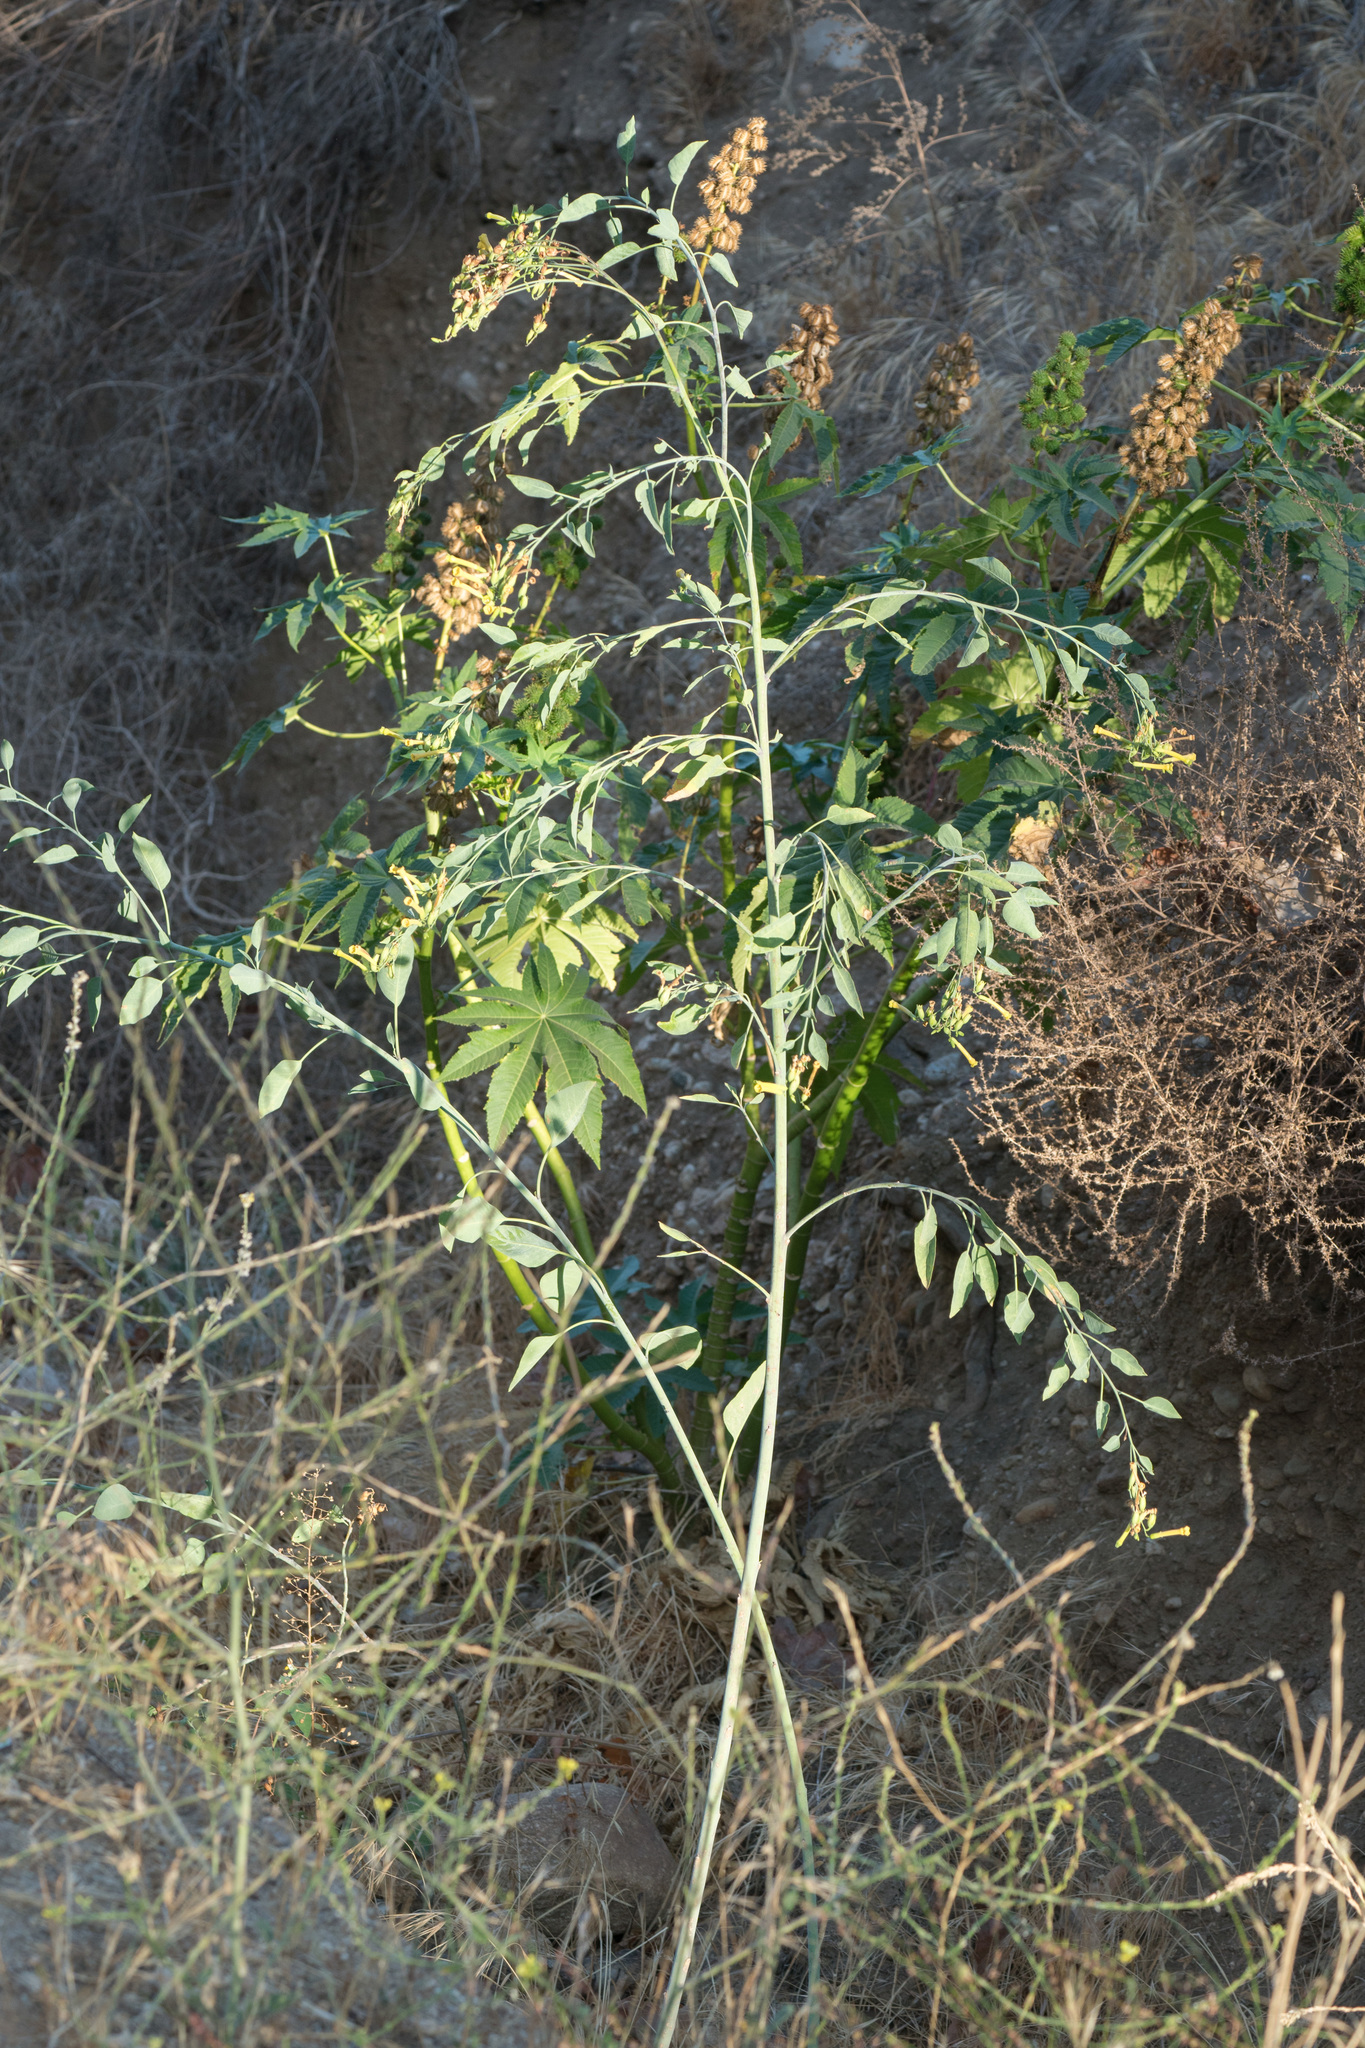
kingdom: Plantae
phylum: Tracheophyta
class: Magnoliopsida
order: Solanales
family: Solanaceae
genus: Nicotiana
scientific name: Nicotiana glauca
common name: Tree tobacco
